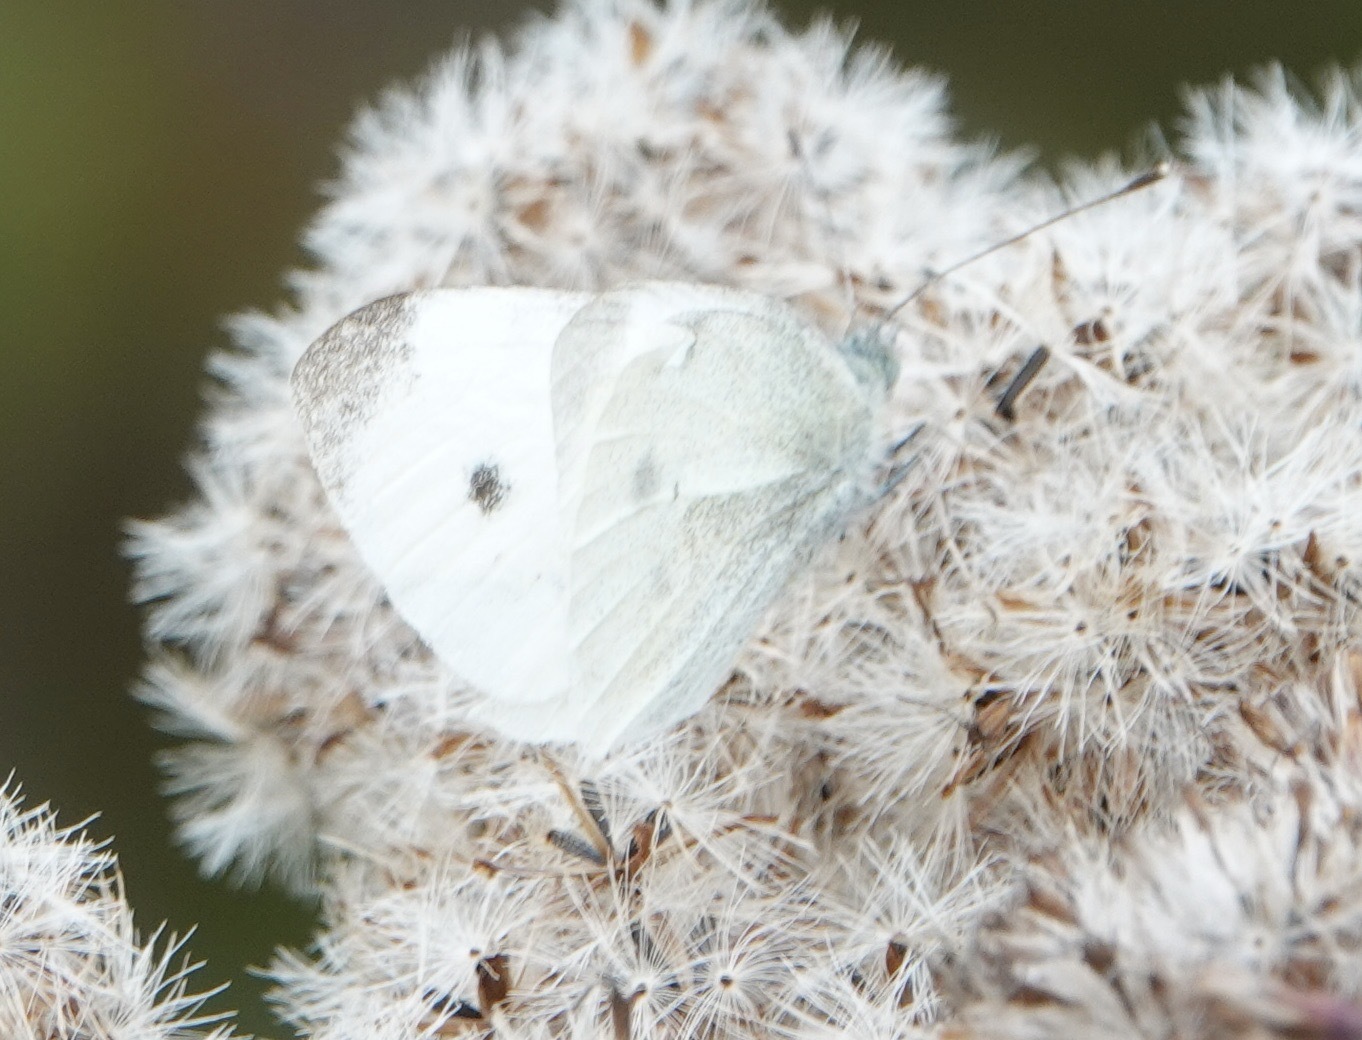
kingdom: Animalia
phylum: Arthropoda
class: Insecta
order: Lepidoptera
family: Pieridae
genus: Pieris
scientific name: Pieris rapae
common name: Small white
